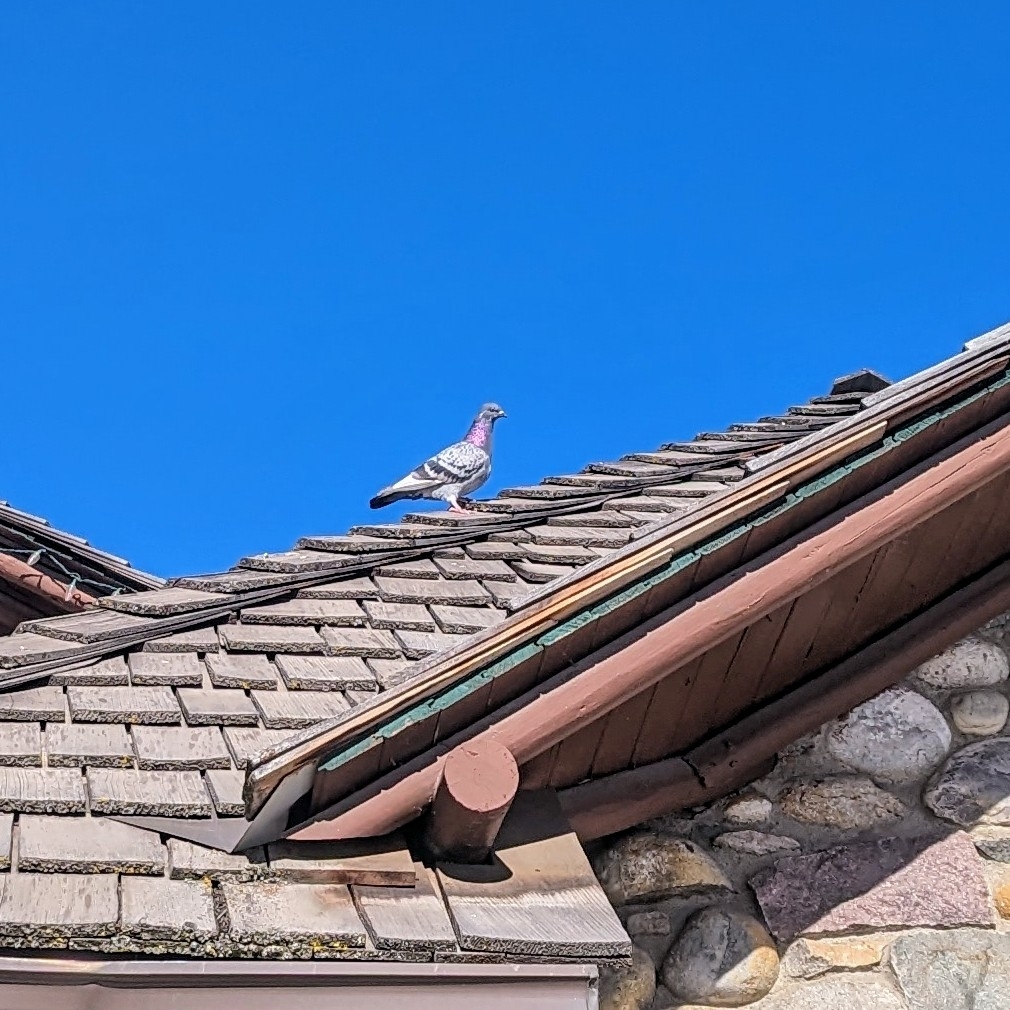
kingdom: Animalia
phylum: Chordata
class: Aves
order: Columbiformes
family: Columbidae
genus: Columba
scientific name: Columba livia
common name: Rock pigeon
